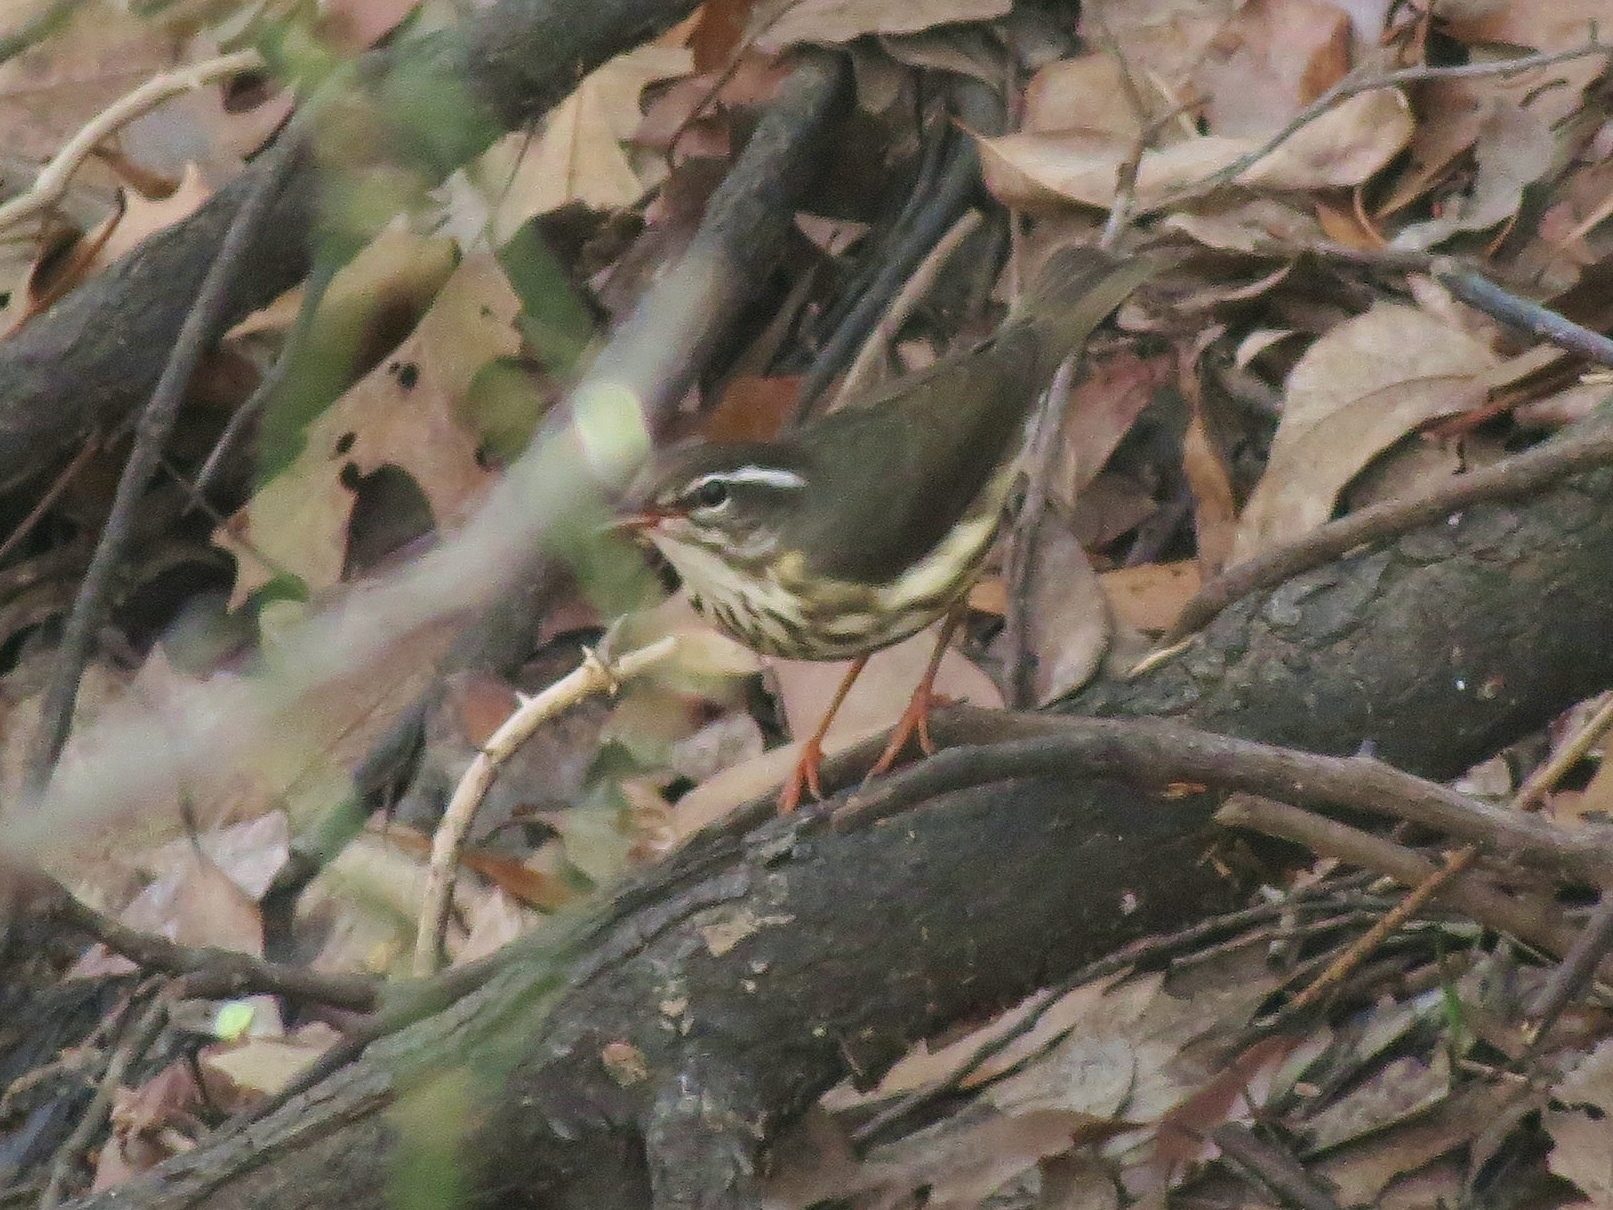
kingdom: Animalia
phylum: Chordata
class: Aves
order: Passeriformes
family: Parulidae
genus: Parkesia
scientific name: Parkesia motacilla
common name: Louisiana waterthrush
